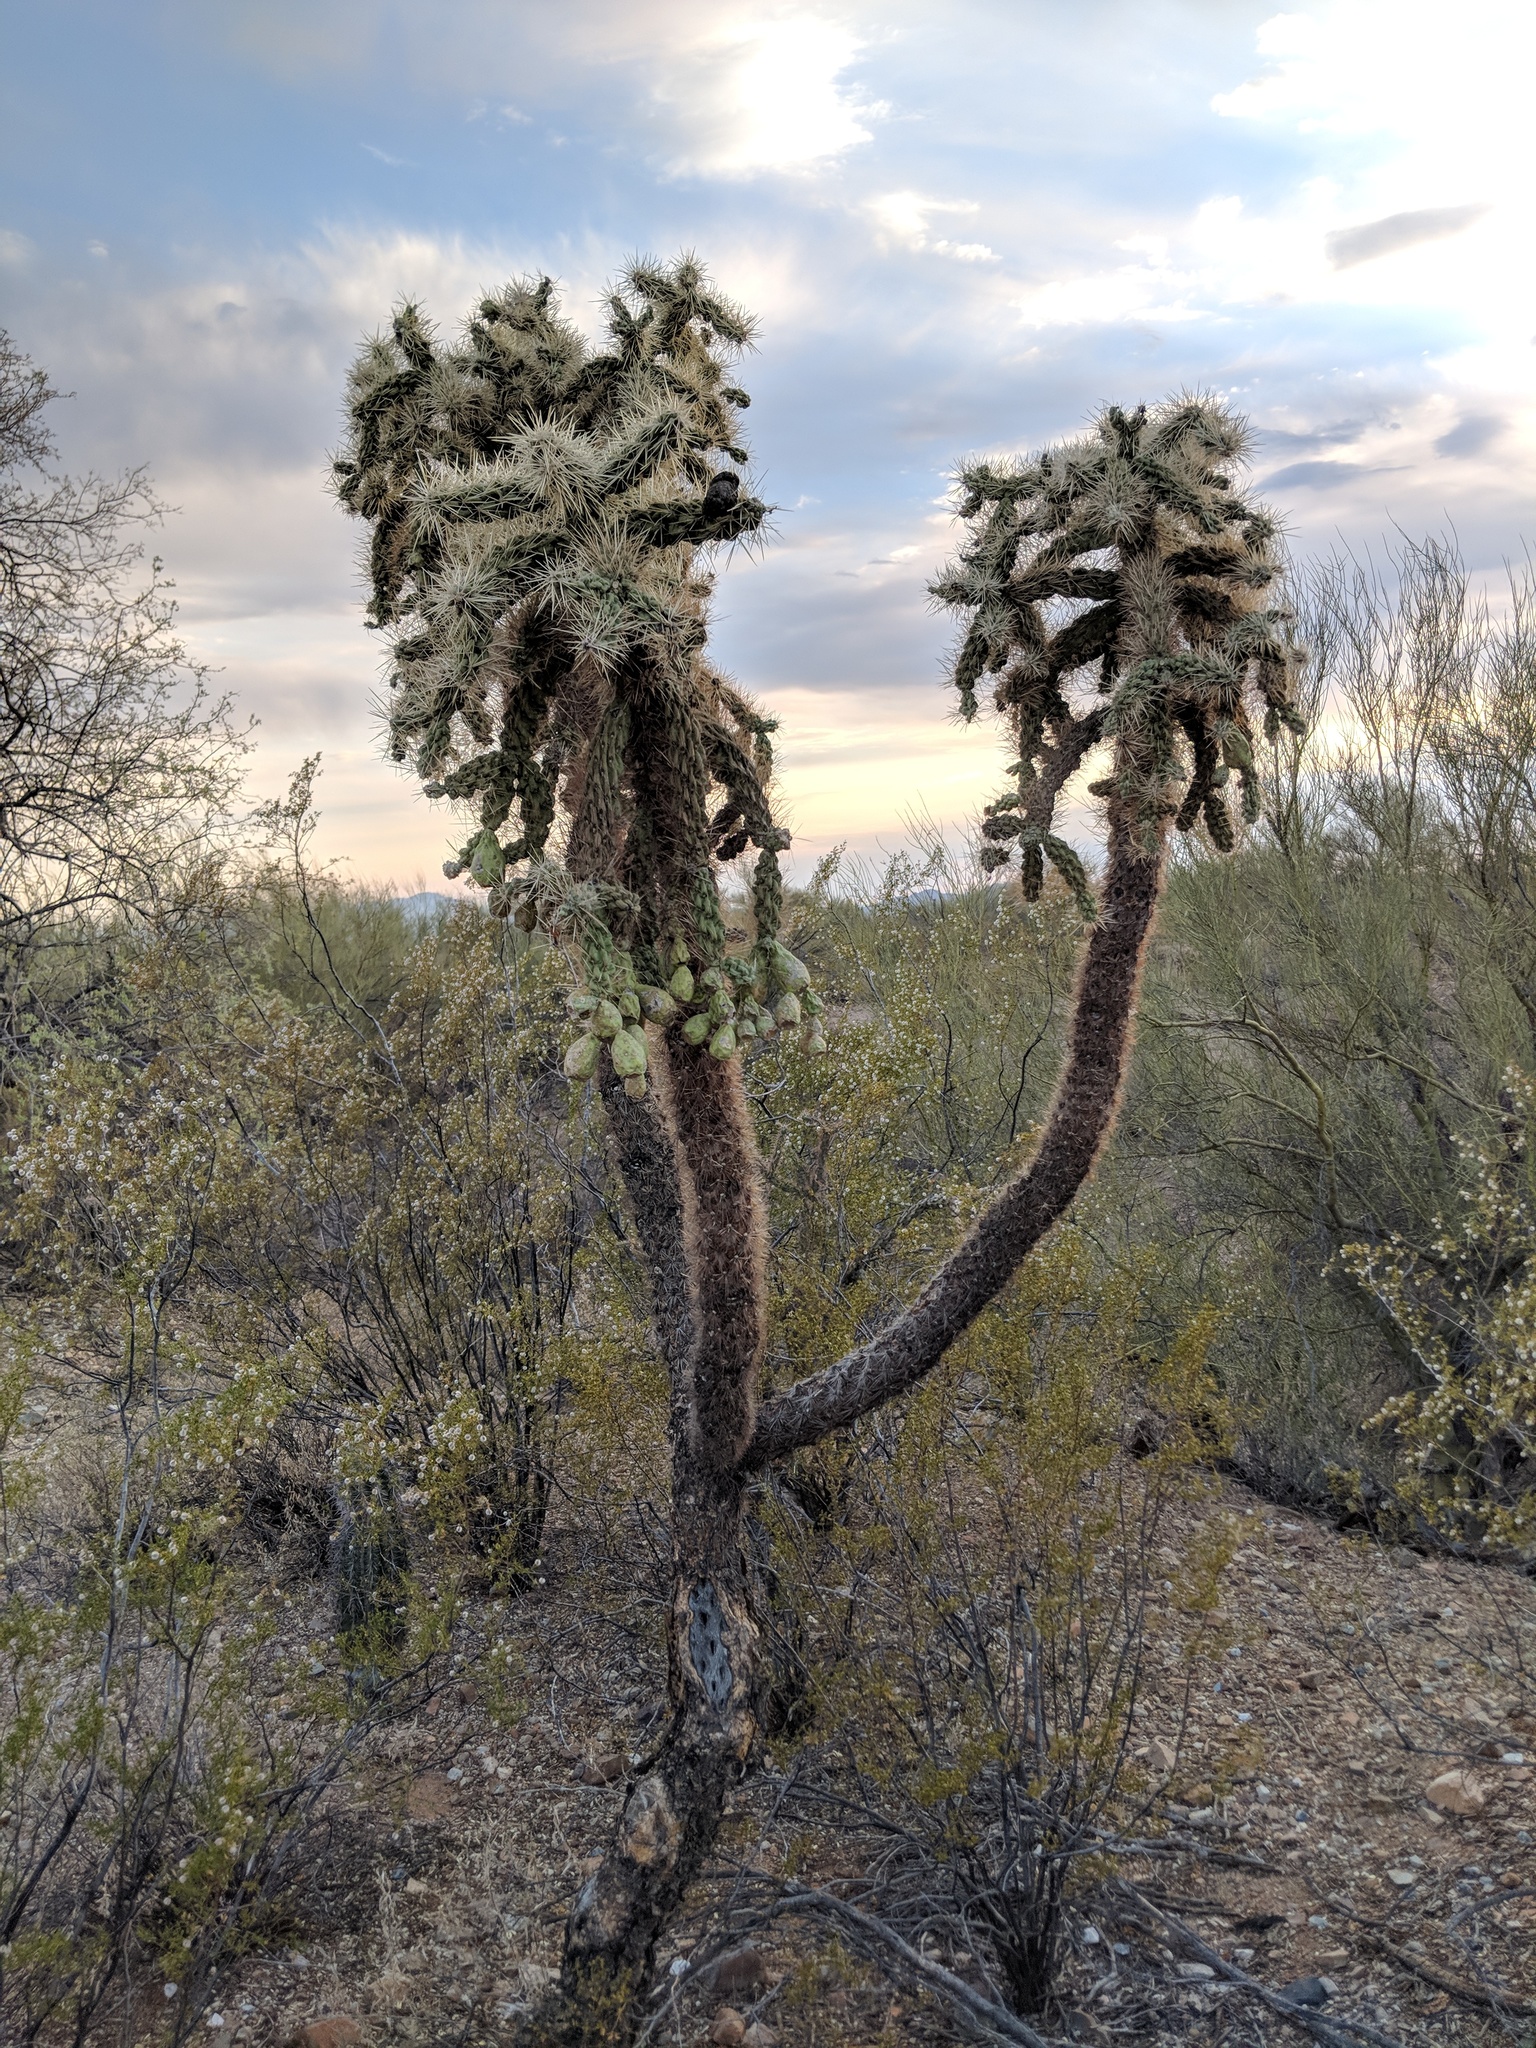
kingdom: Plantae
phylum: Tracheophyta
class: Magnoliopsida
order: Caryophyllales
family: Cactaceae
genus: Cylindropuntia
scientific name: Cylindropuntia fulgida
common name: Jumping cholla
